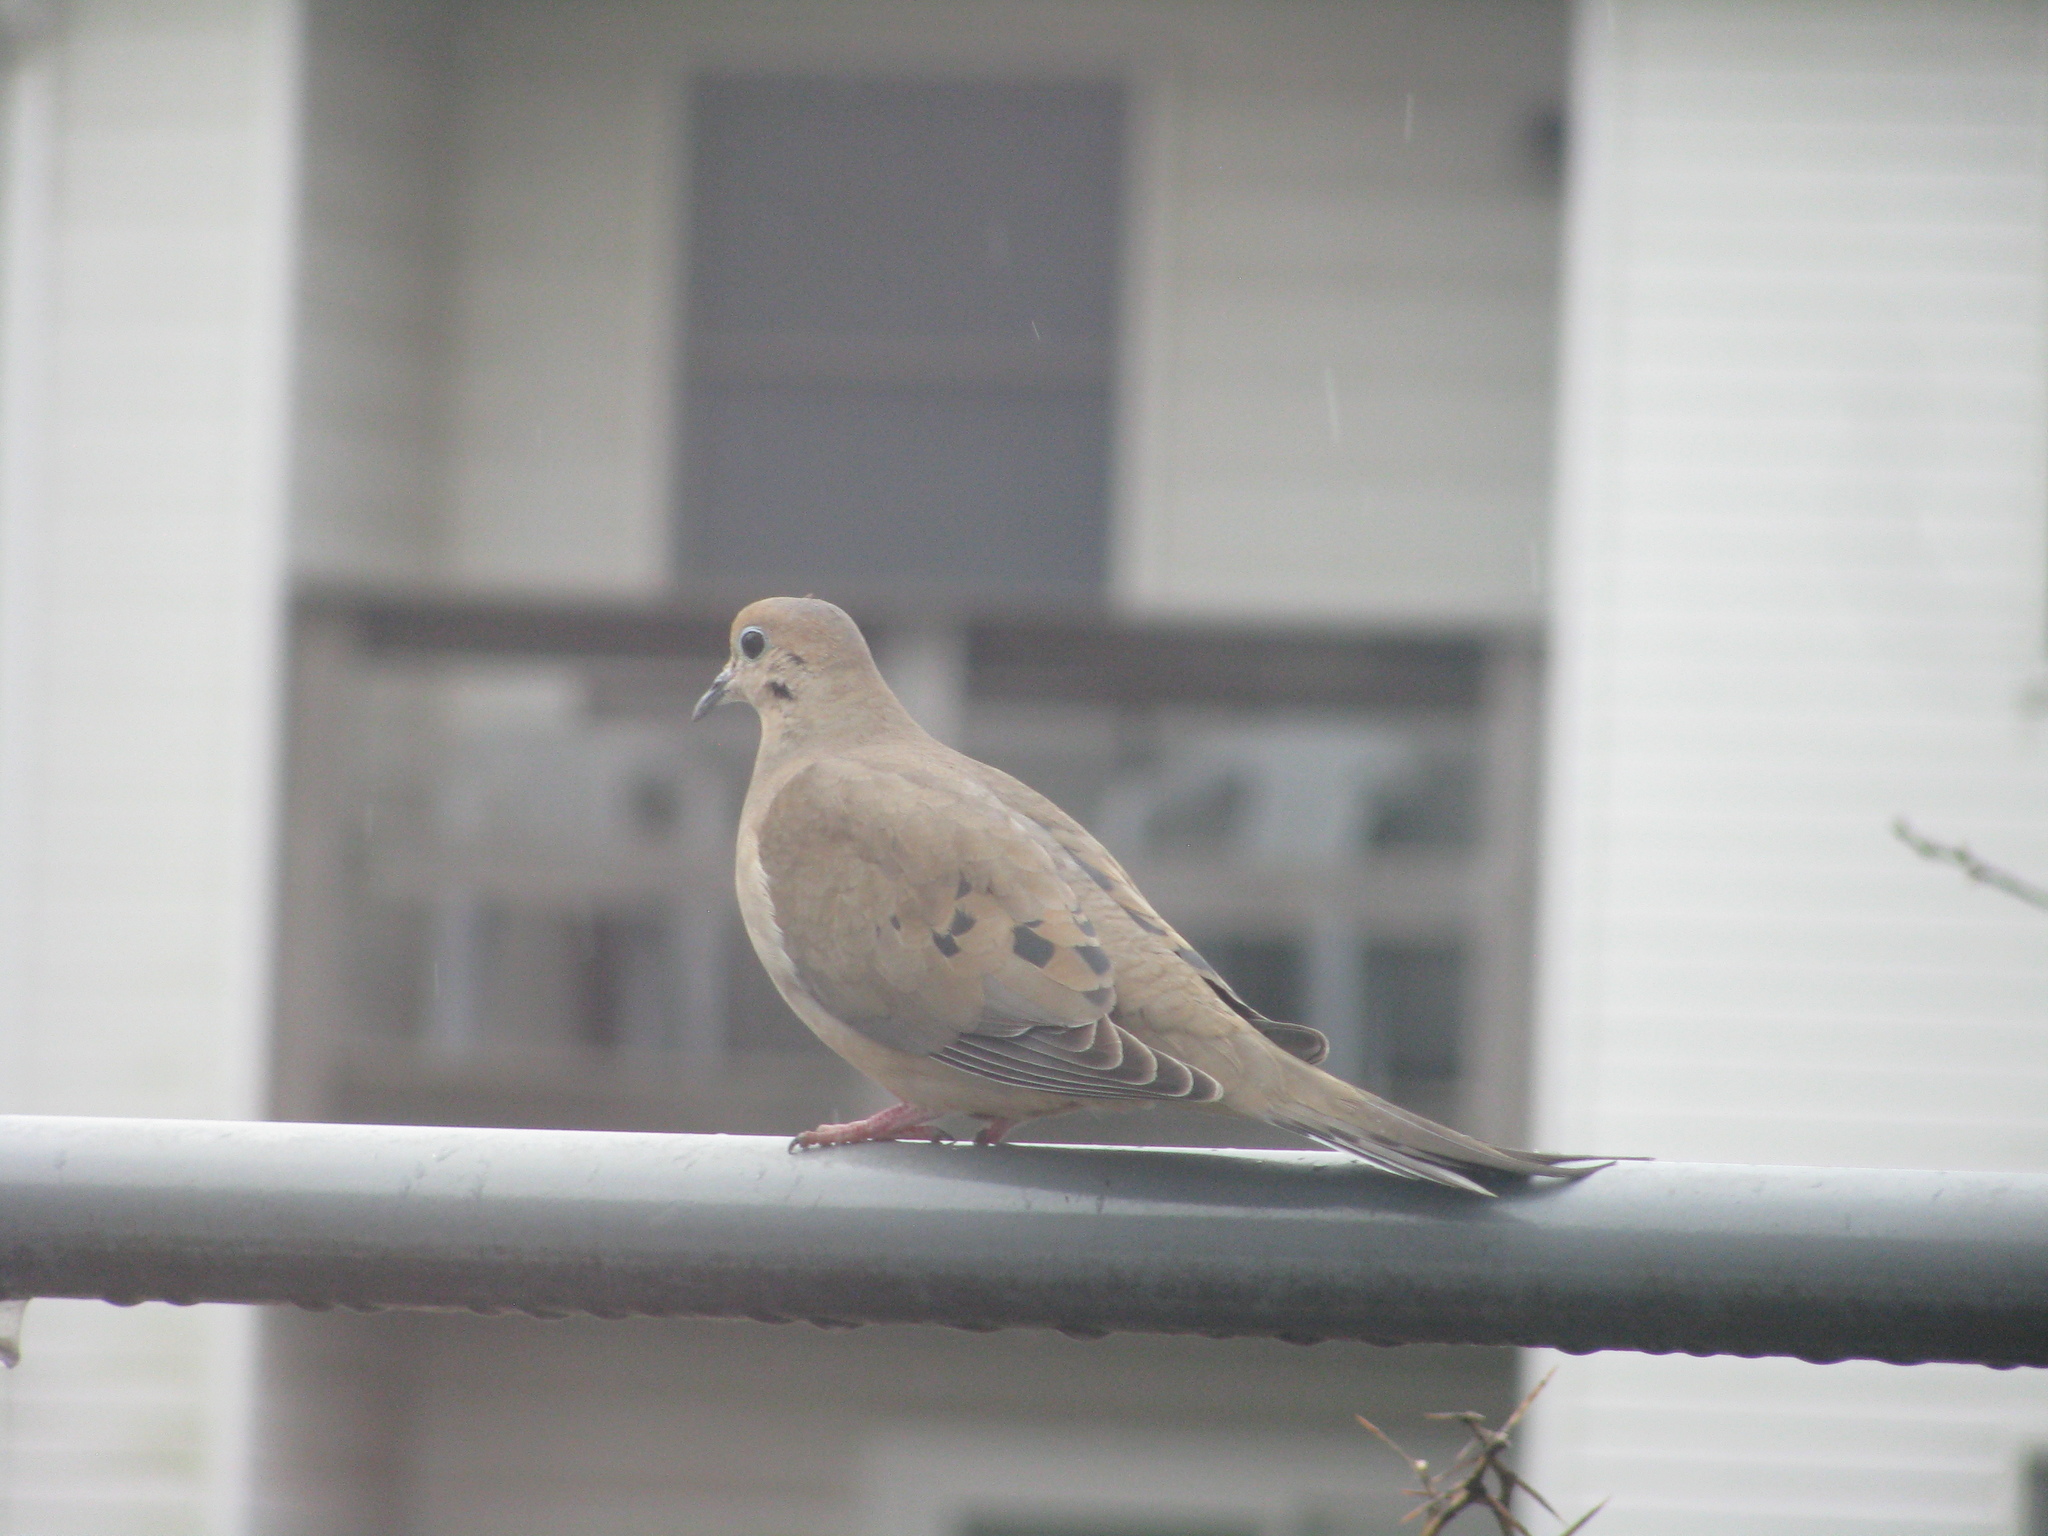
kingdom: Animalia
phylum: Chordata
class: Aves
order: Columbiformes
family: Columbidae
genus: Zenaida
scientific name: Zenaida macroura
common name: Mourning dove
